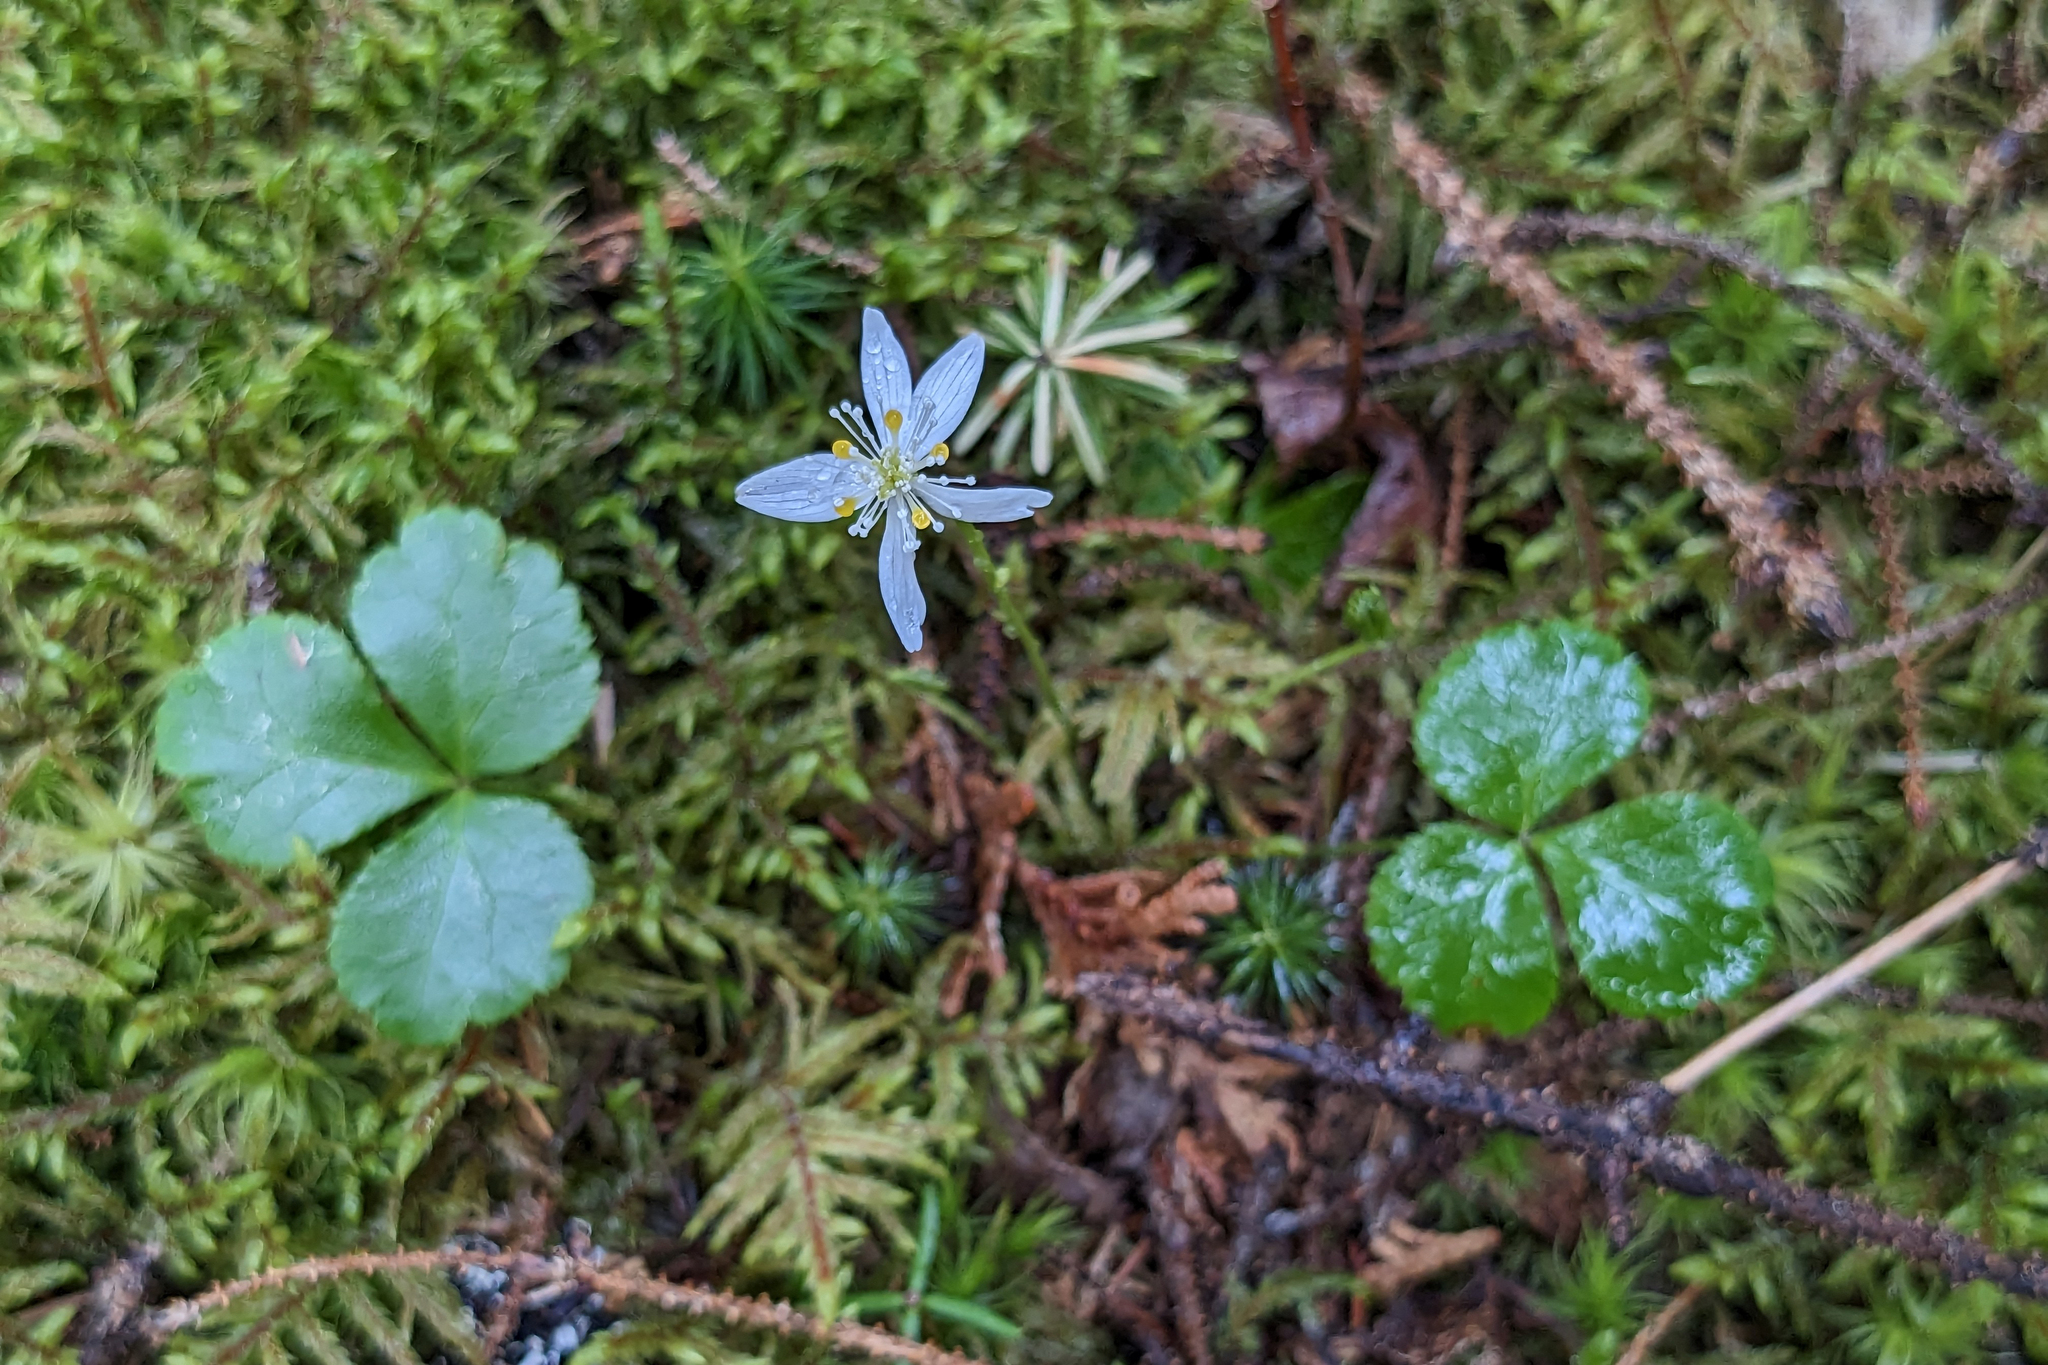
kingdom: Plantae
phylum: Tracheophyta
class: Magnoliopsida
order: Ranunculales
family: Ranunculaceae
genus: Coptis
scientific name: Coptis trifolia
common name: Canker-root
